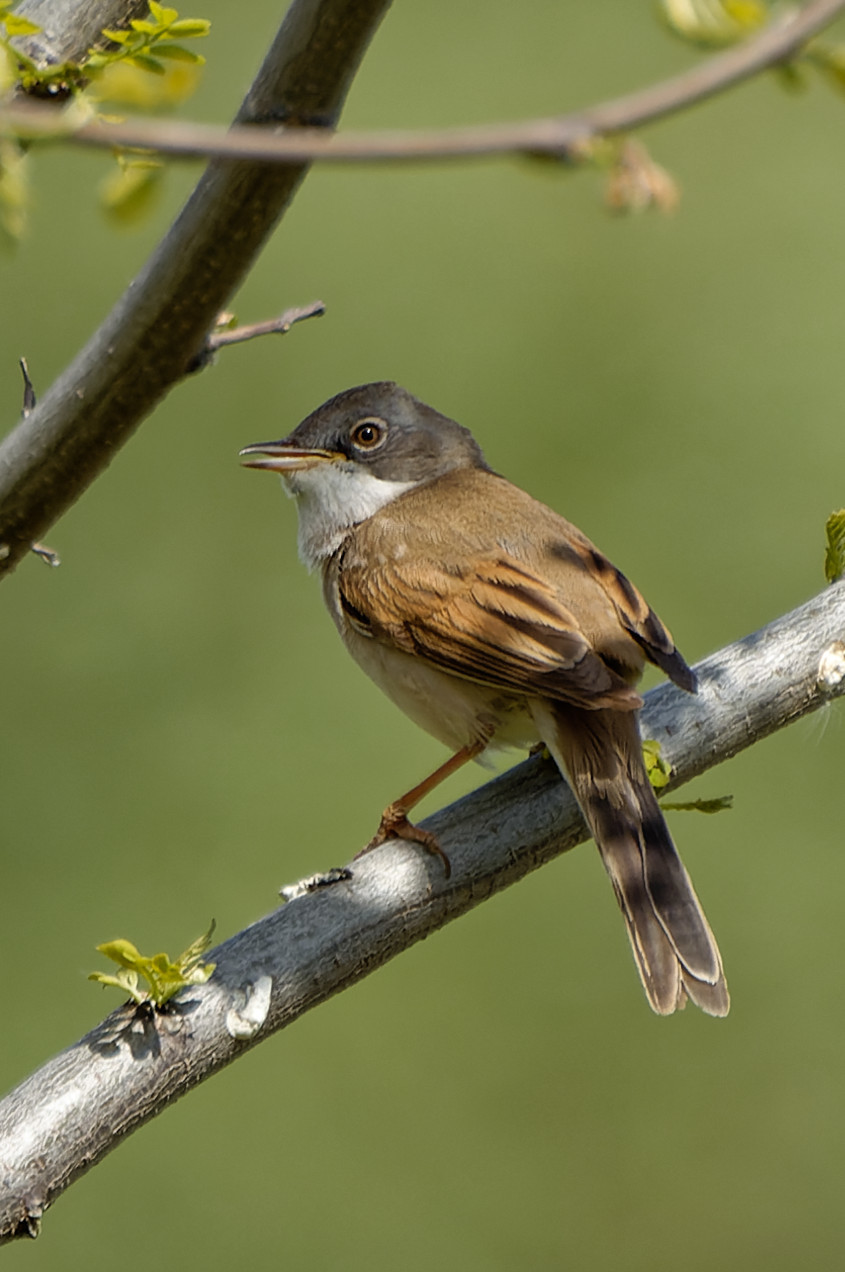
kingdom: Animalia
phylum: Chordata
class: Aves
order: Passeriformes
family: Sylviidae
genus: Sylvia
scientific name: Sylvia communis
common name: Common whitethroat
